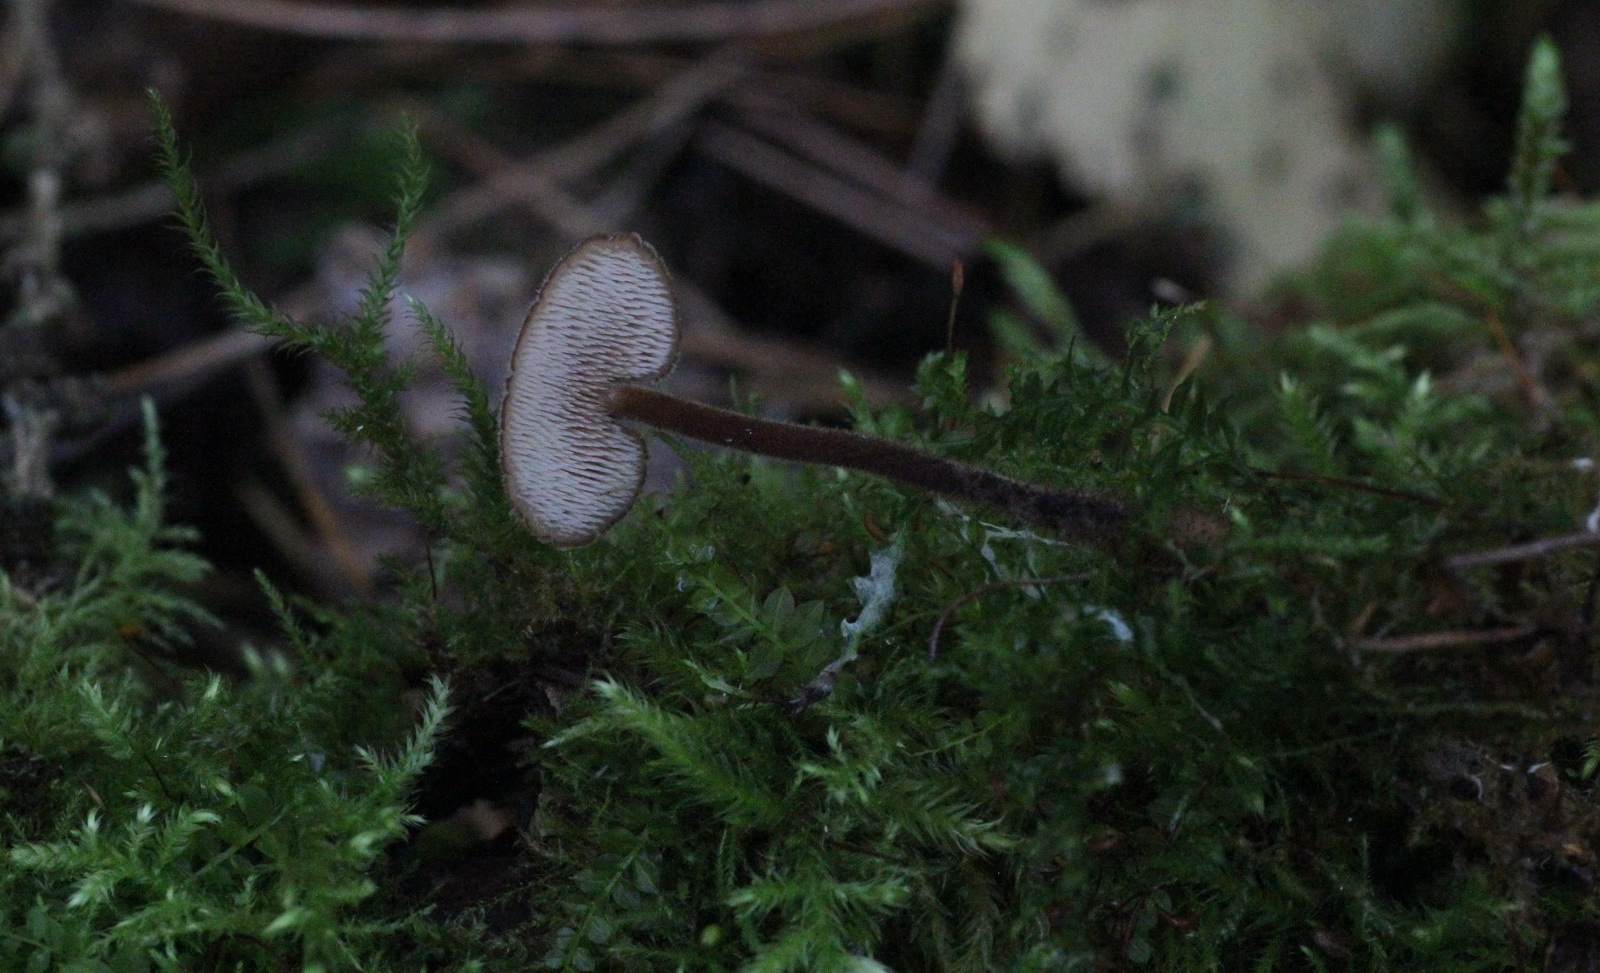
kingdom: Fungi
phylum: Basidiomycota
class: Agaricomycetes
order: Russulales
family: Auriscalpiaceae
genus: Auriscalpium
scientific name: Auriscalpium vulgare
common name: Earpick fungus
